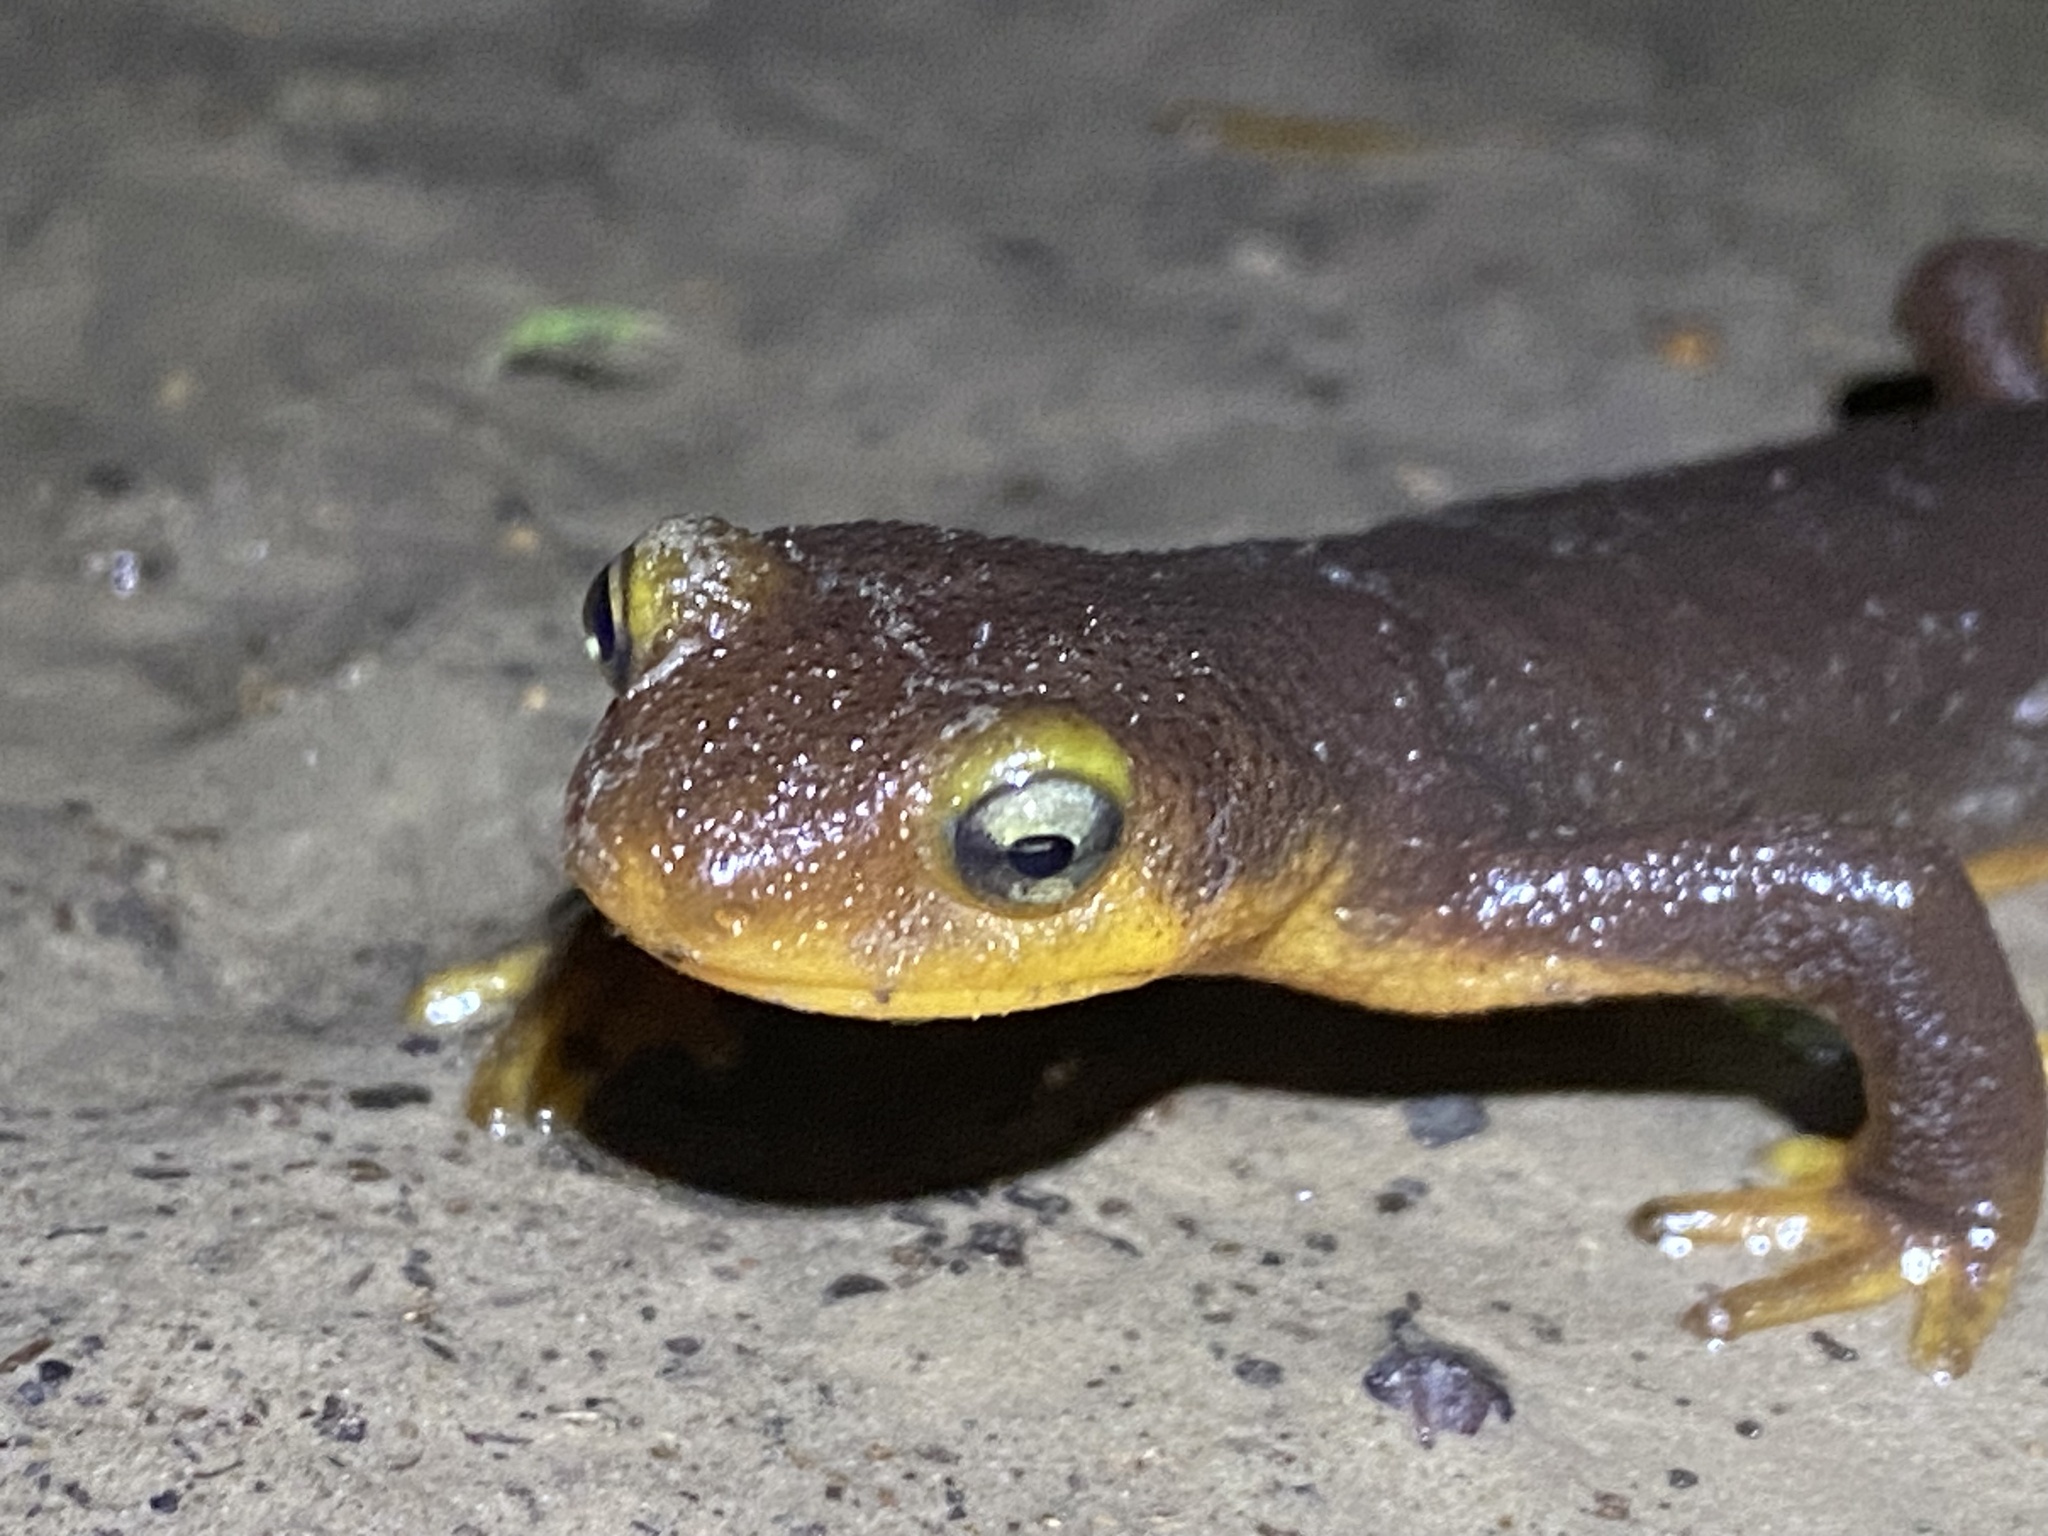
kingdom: Animalia
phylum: Chordata
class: Amphibia
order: Caudata
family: Salamandridae
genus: Taricha
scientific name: Taricha torosa
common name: California newt
